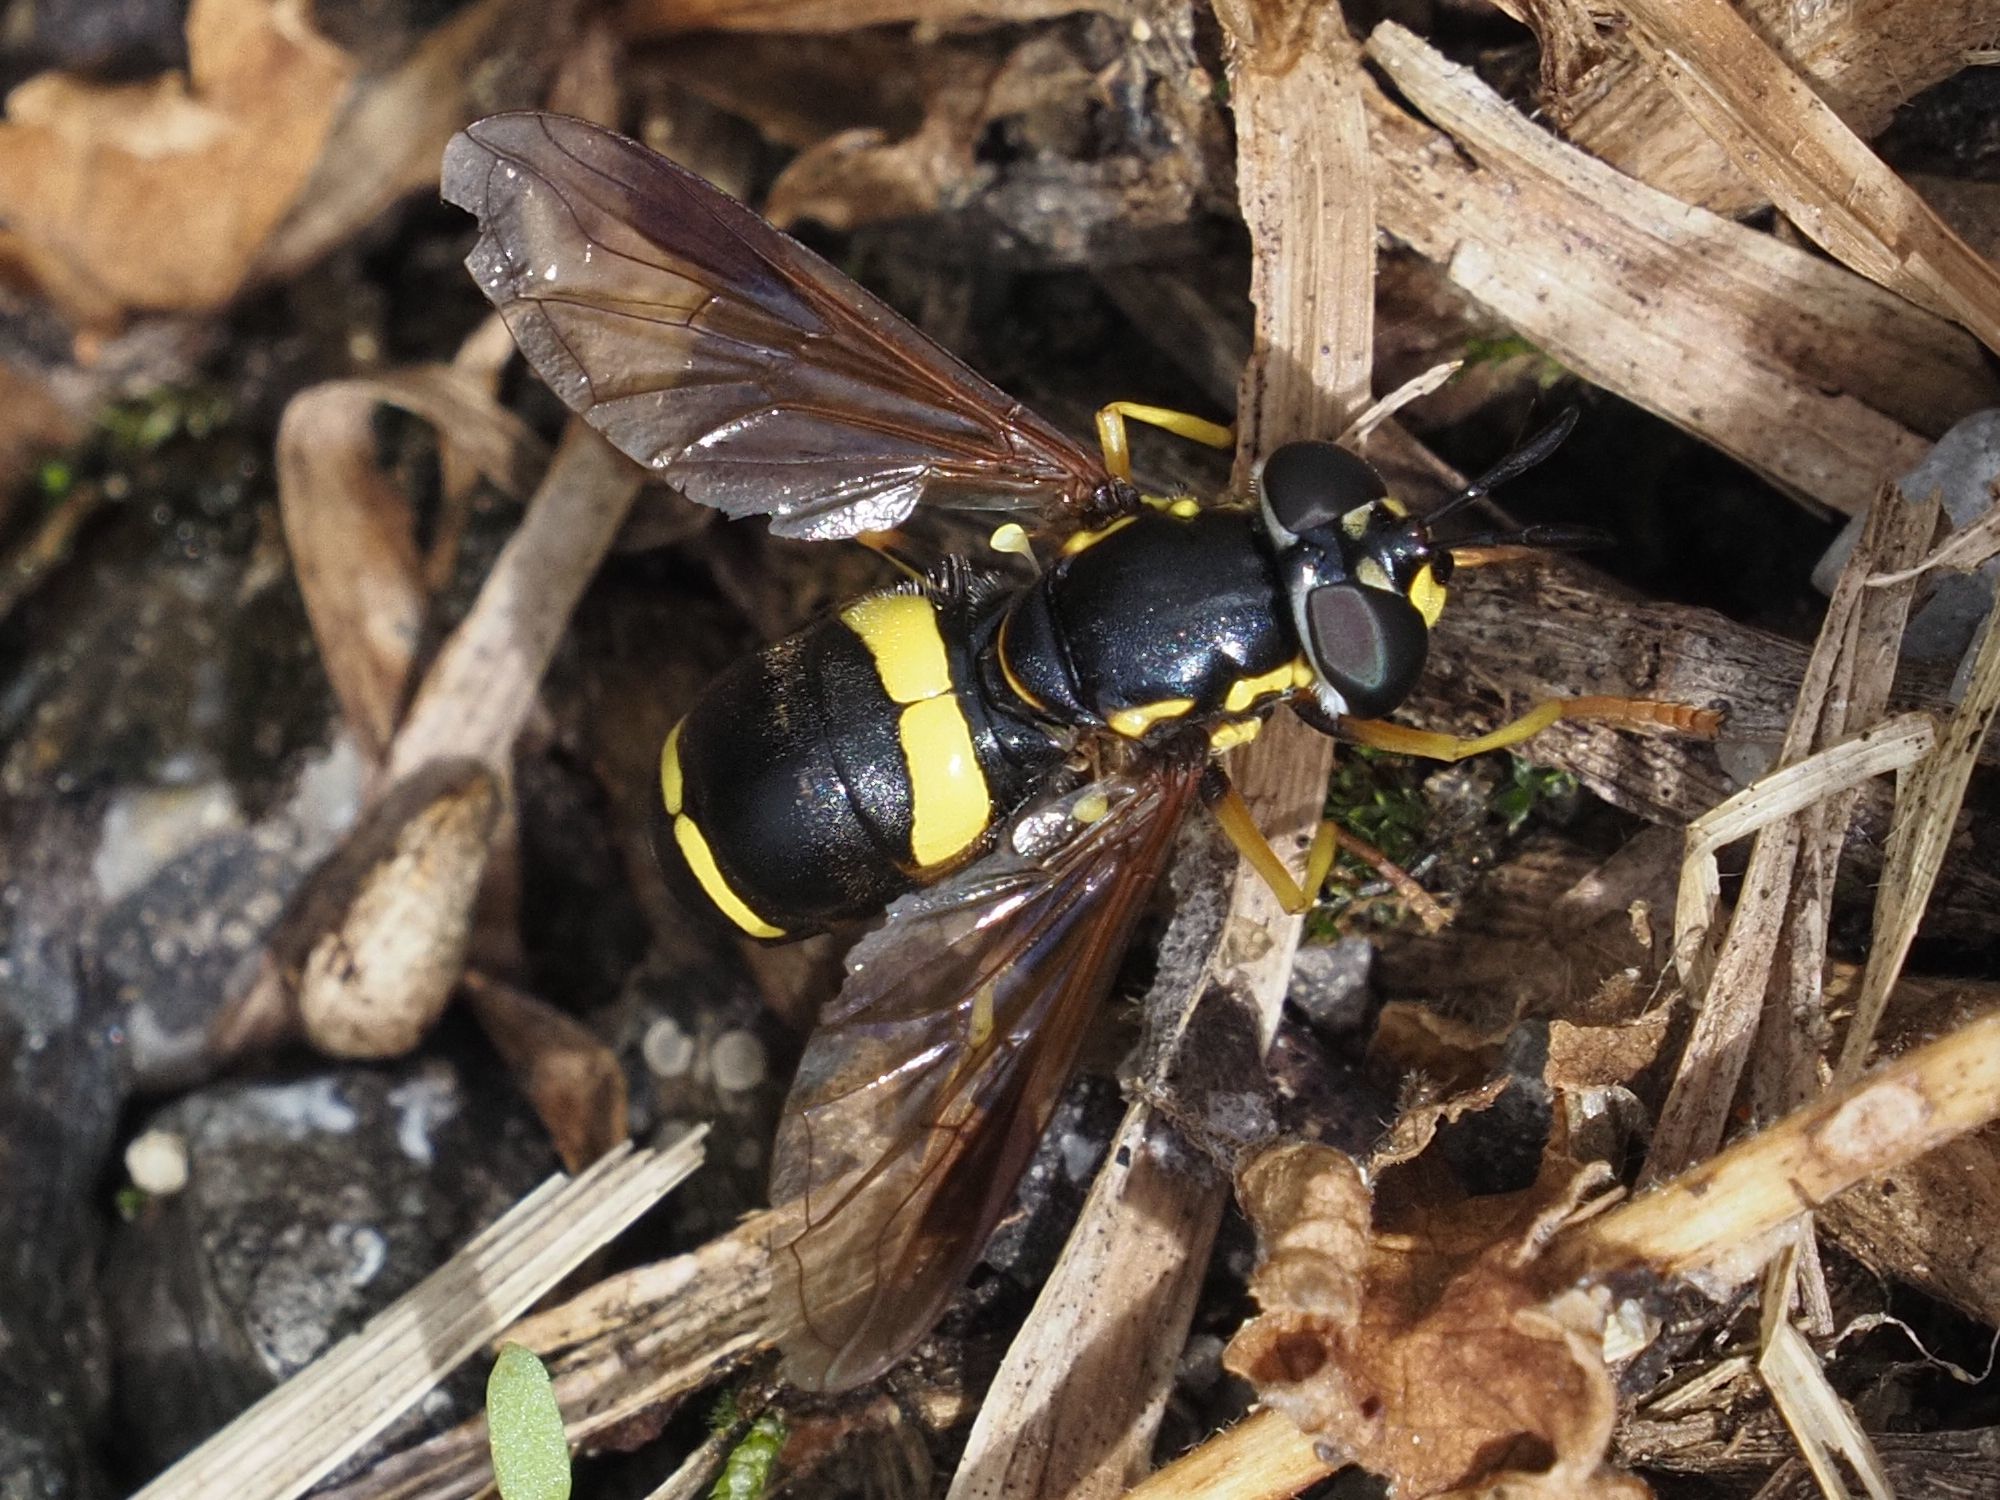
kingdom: Animalia
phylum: Arthropoda
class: Insecta
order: Diptera
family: Syrphidae
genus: Chrysotoxum
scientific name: Chrysotoxum bicincta
